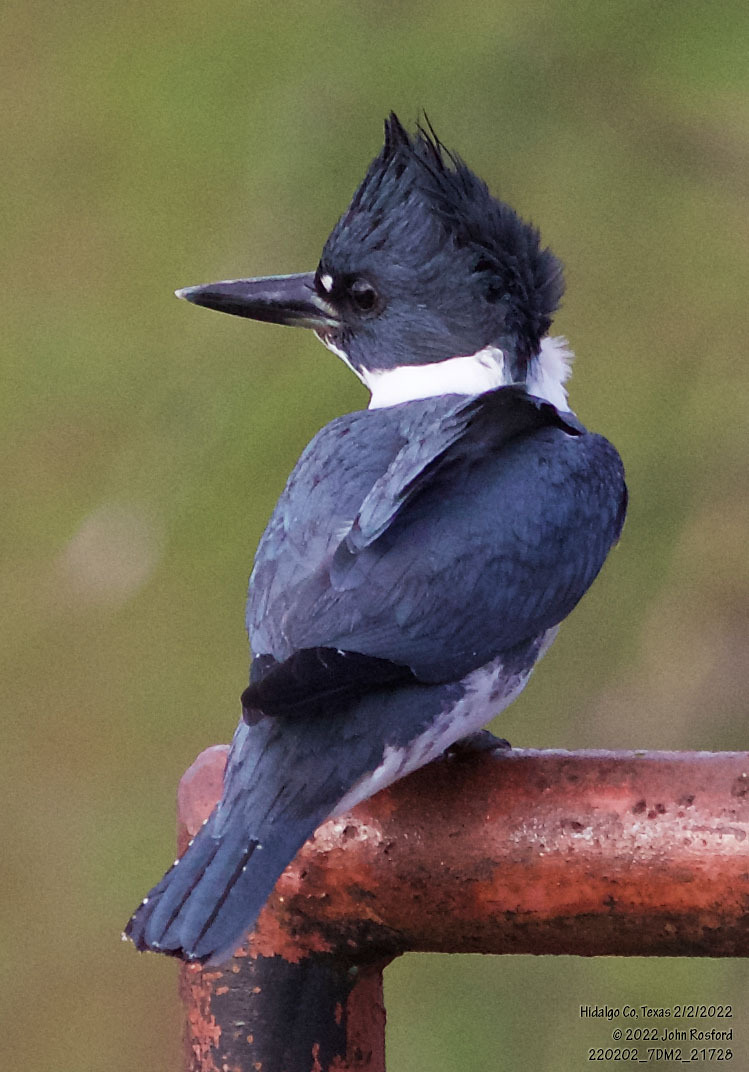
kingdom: Animalia
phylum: Chordata
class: Aves
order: Coraciiformes
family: Alcedinidae
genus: Megaceryle
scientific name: Megaceryle alcyon
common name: Belted kingfisher
